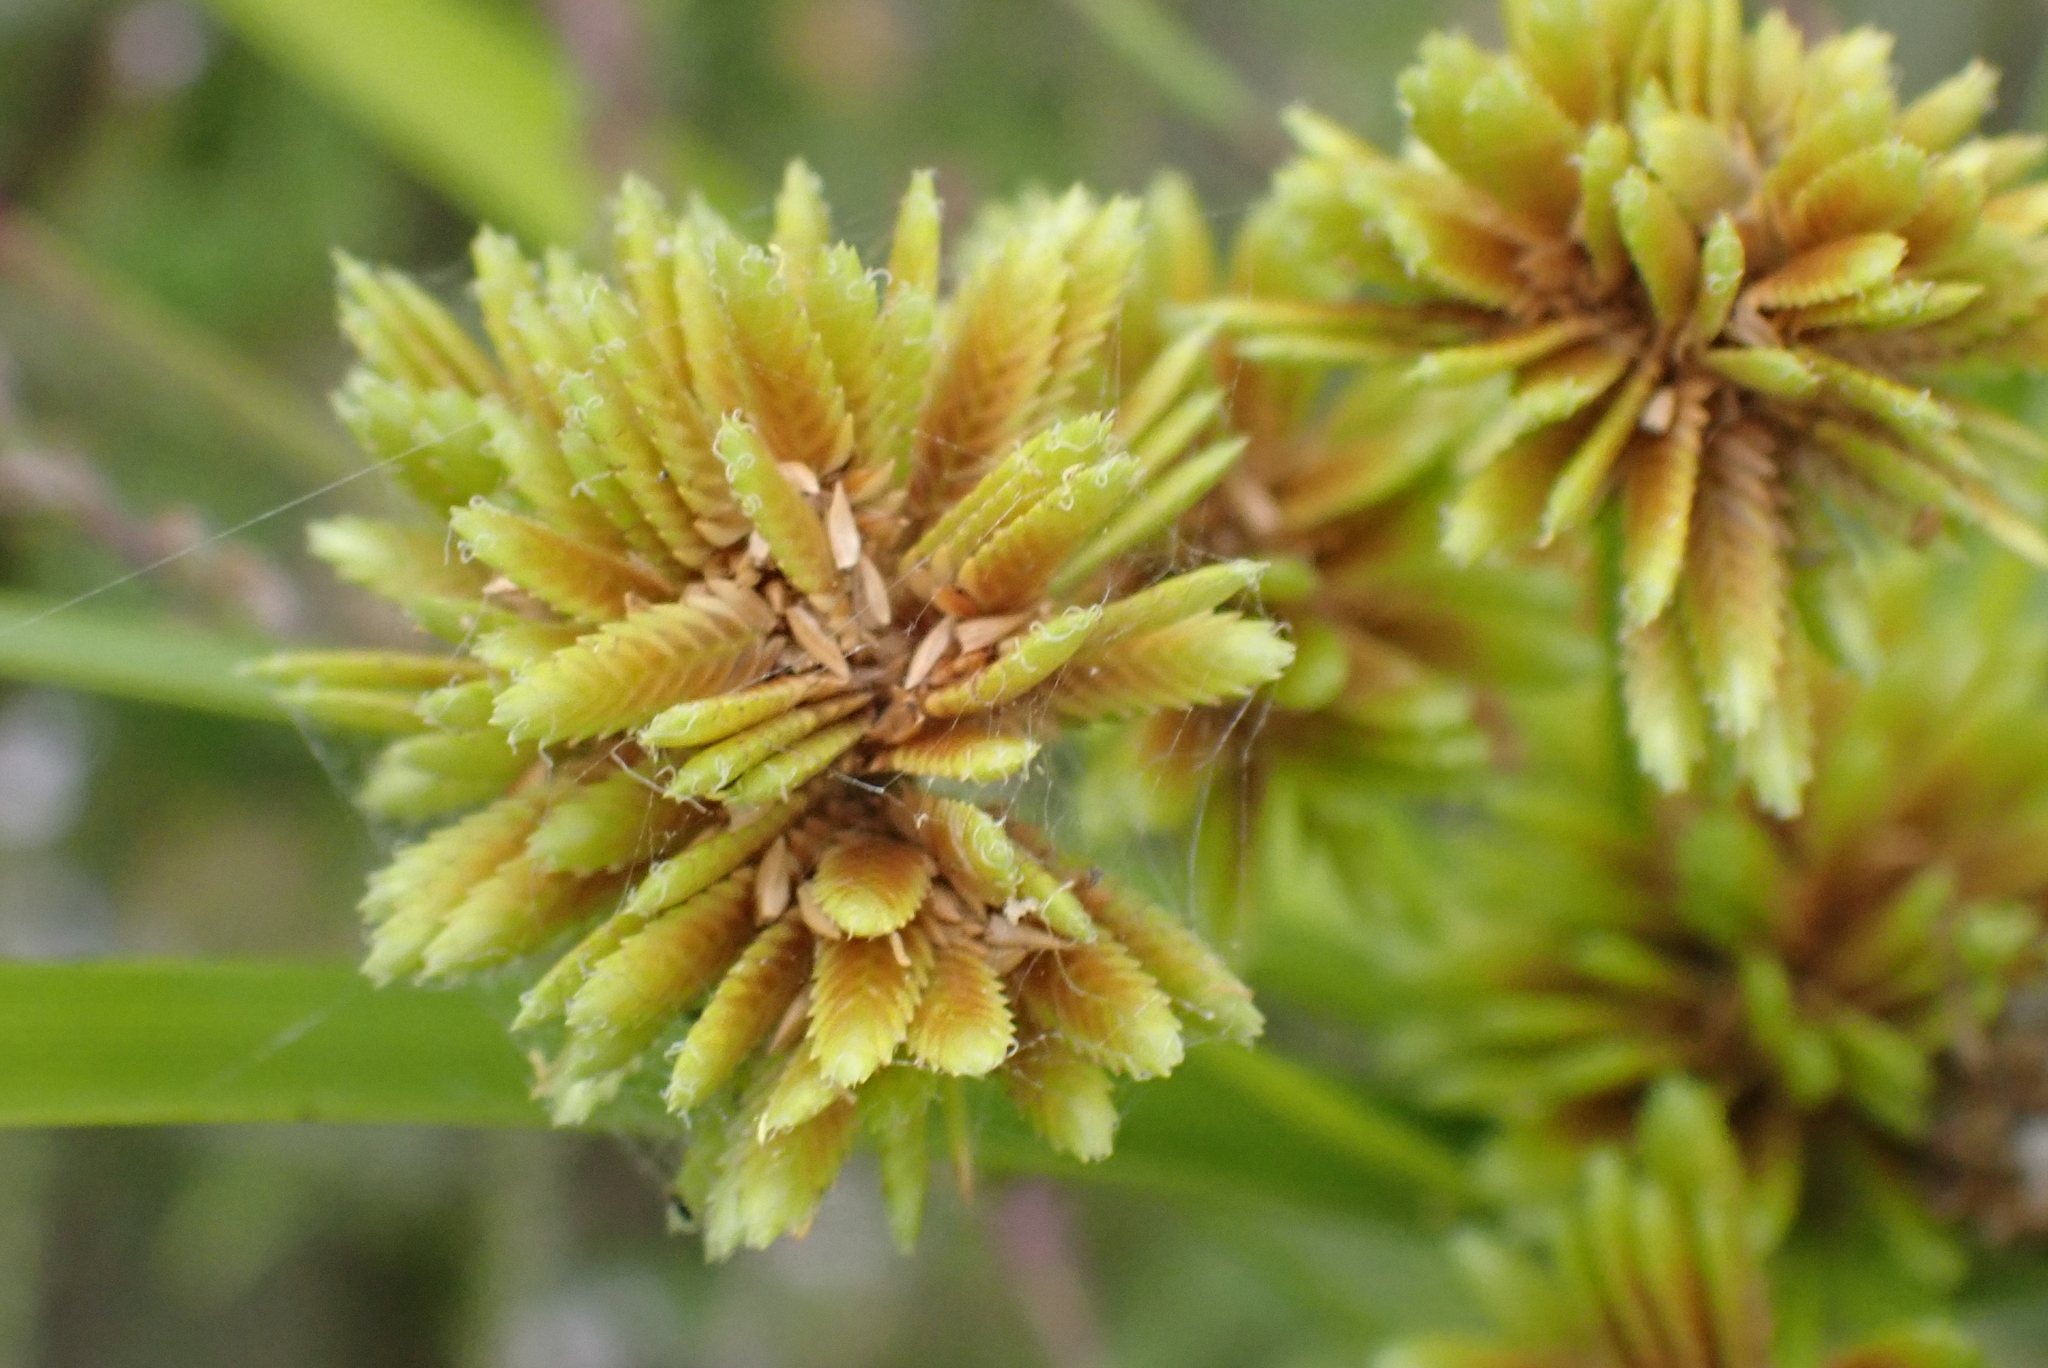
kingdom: Plantae
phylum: Tracheophyta
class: Liliopsida
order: Poales
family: Cyperaceae
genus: Cyperus
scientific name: Cyperus eragrostis
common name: Tall flatsedge
